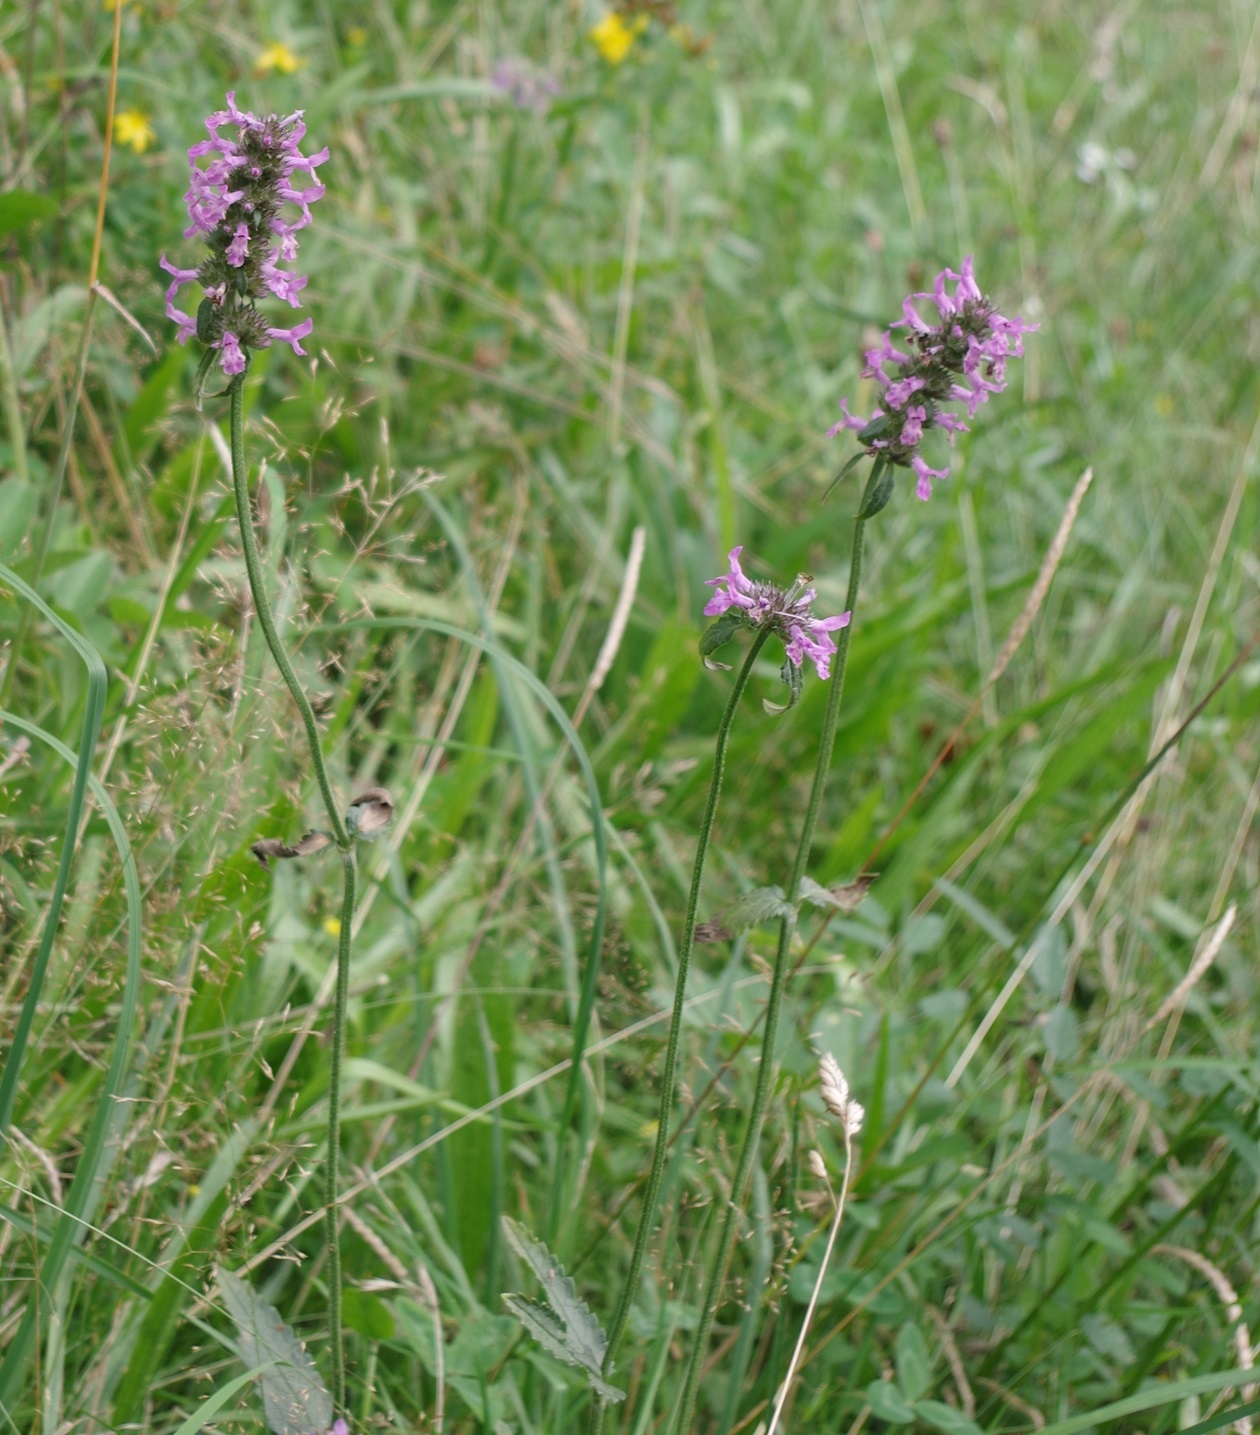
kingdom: Plantae
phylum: Tracheophyta
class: Magnoliopsida
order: Lamiales
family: Lamiaceae
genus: Betonica
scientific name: Betonica officinalis
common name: Bishop's-wort
